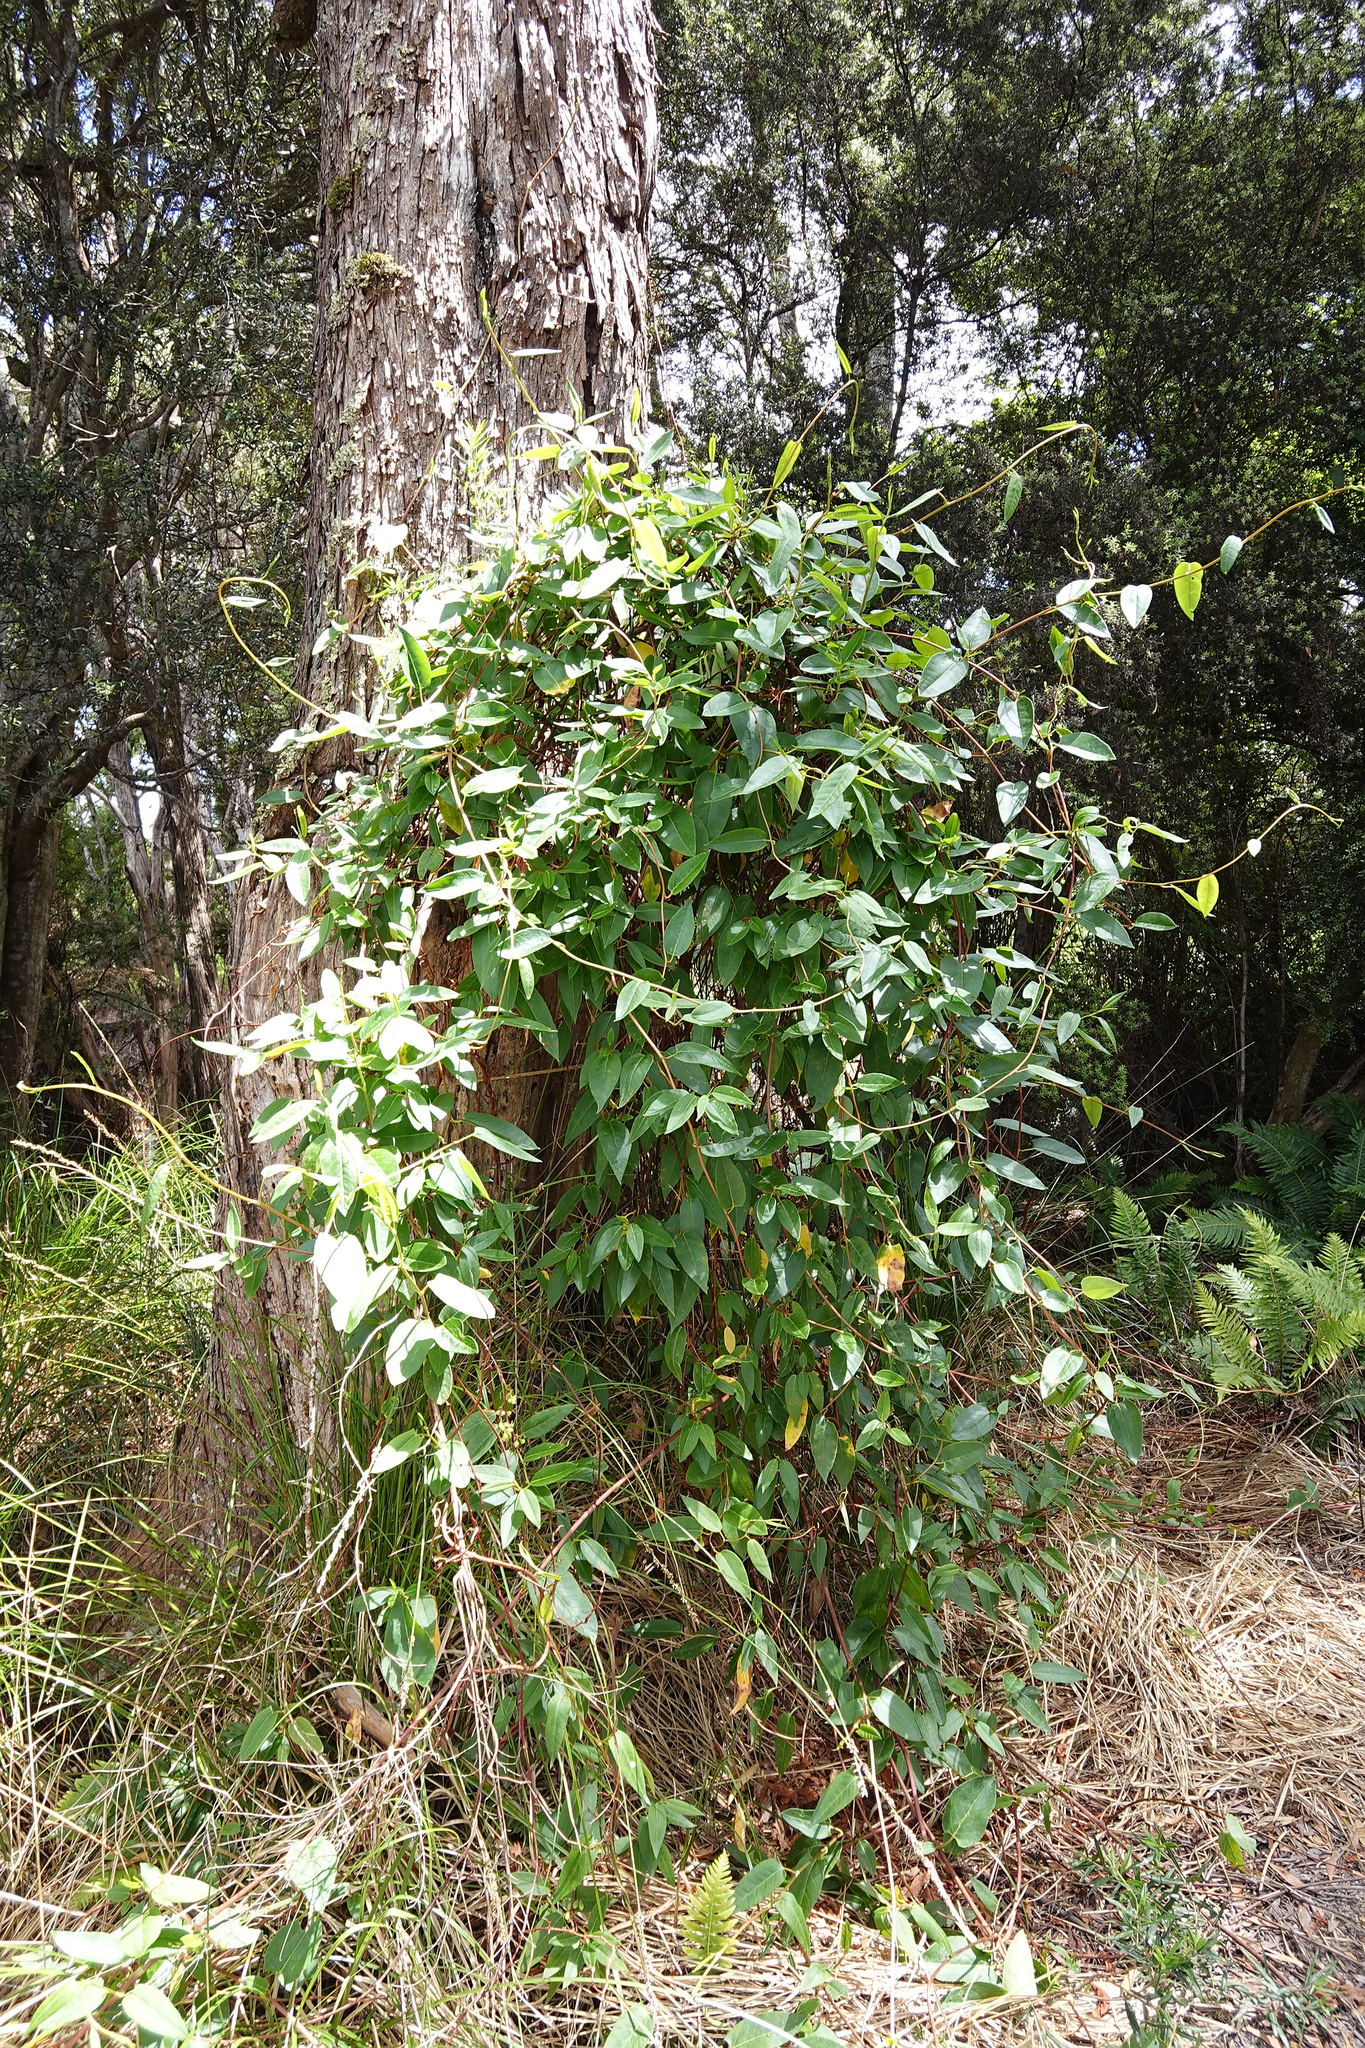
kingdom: Plantae
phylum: Tracheophyta
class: Magnoliopsida
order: Caryophyllales
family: Polygonaceae
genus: Muehlenbeckia
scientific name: Muehlenbeckia gunnii
